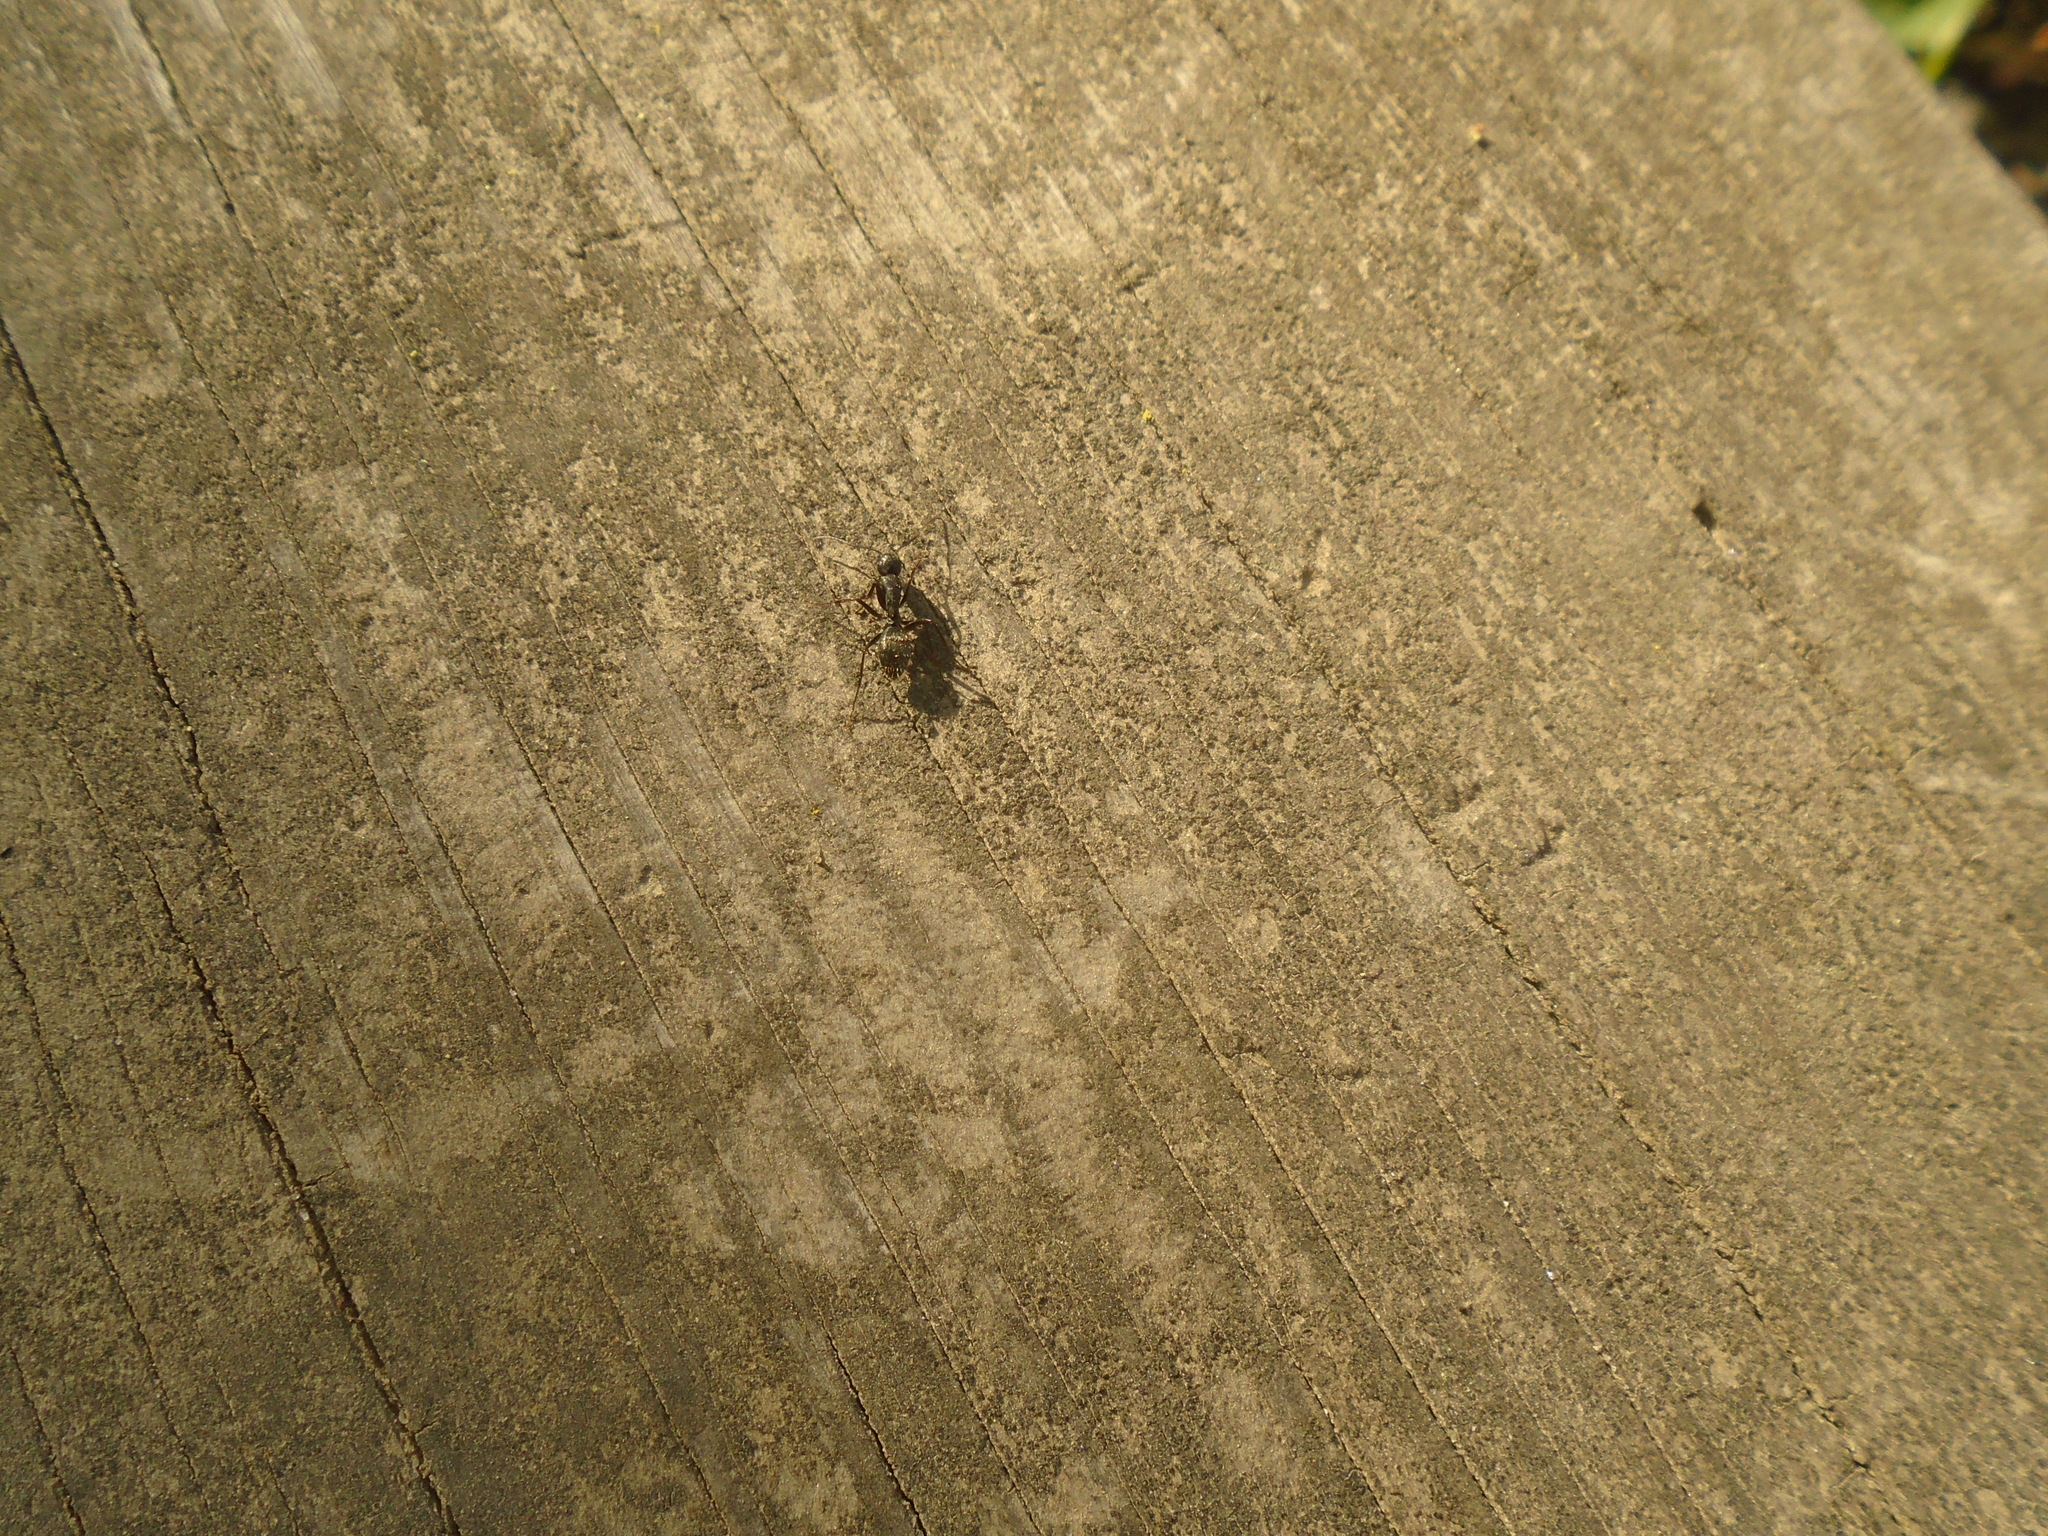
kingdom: Animalia
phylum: Arthropoda
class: Insecta
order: Hymenoptera
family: Formicidae
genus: Camponotus
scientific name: Camponotus pennsylvanicus
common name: Black carpenter ant
